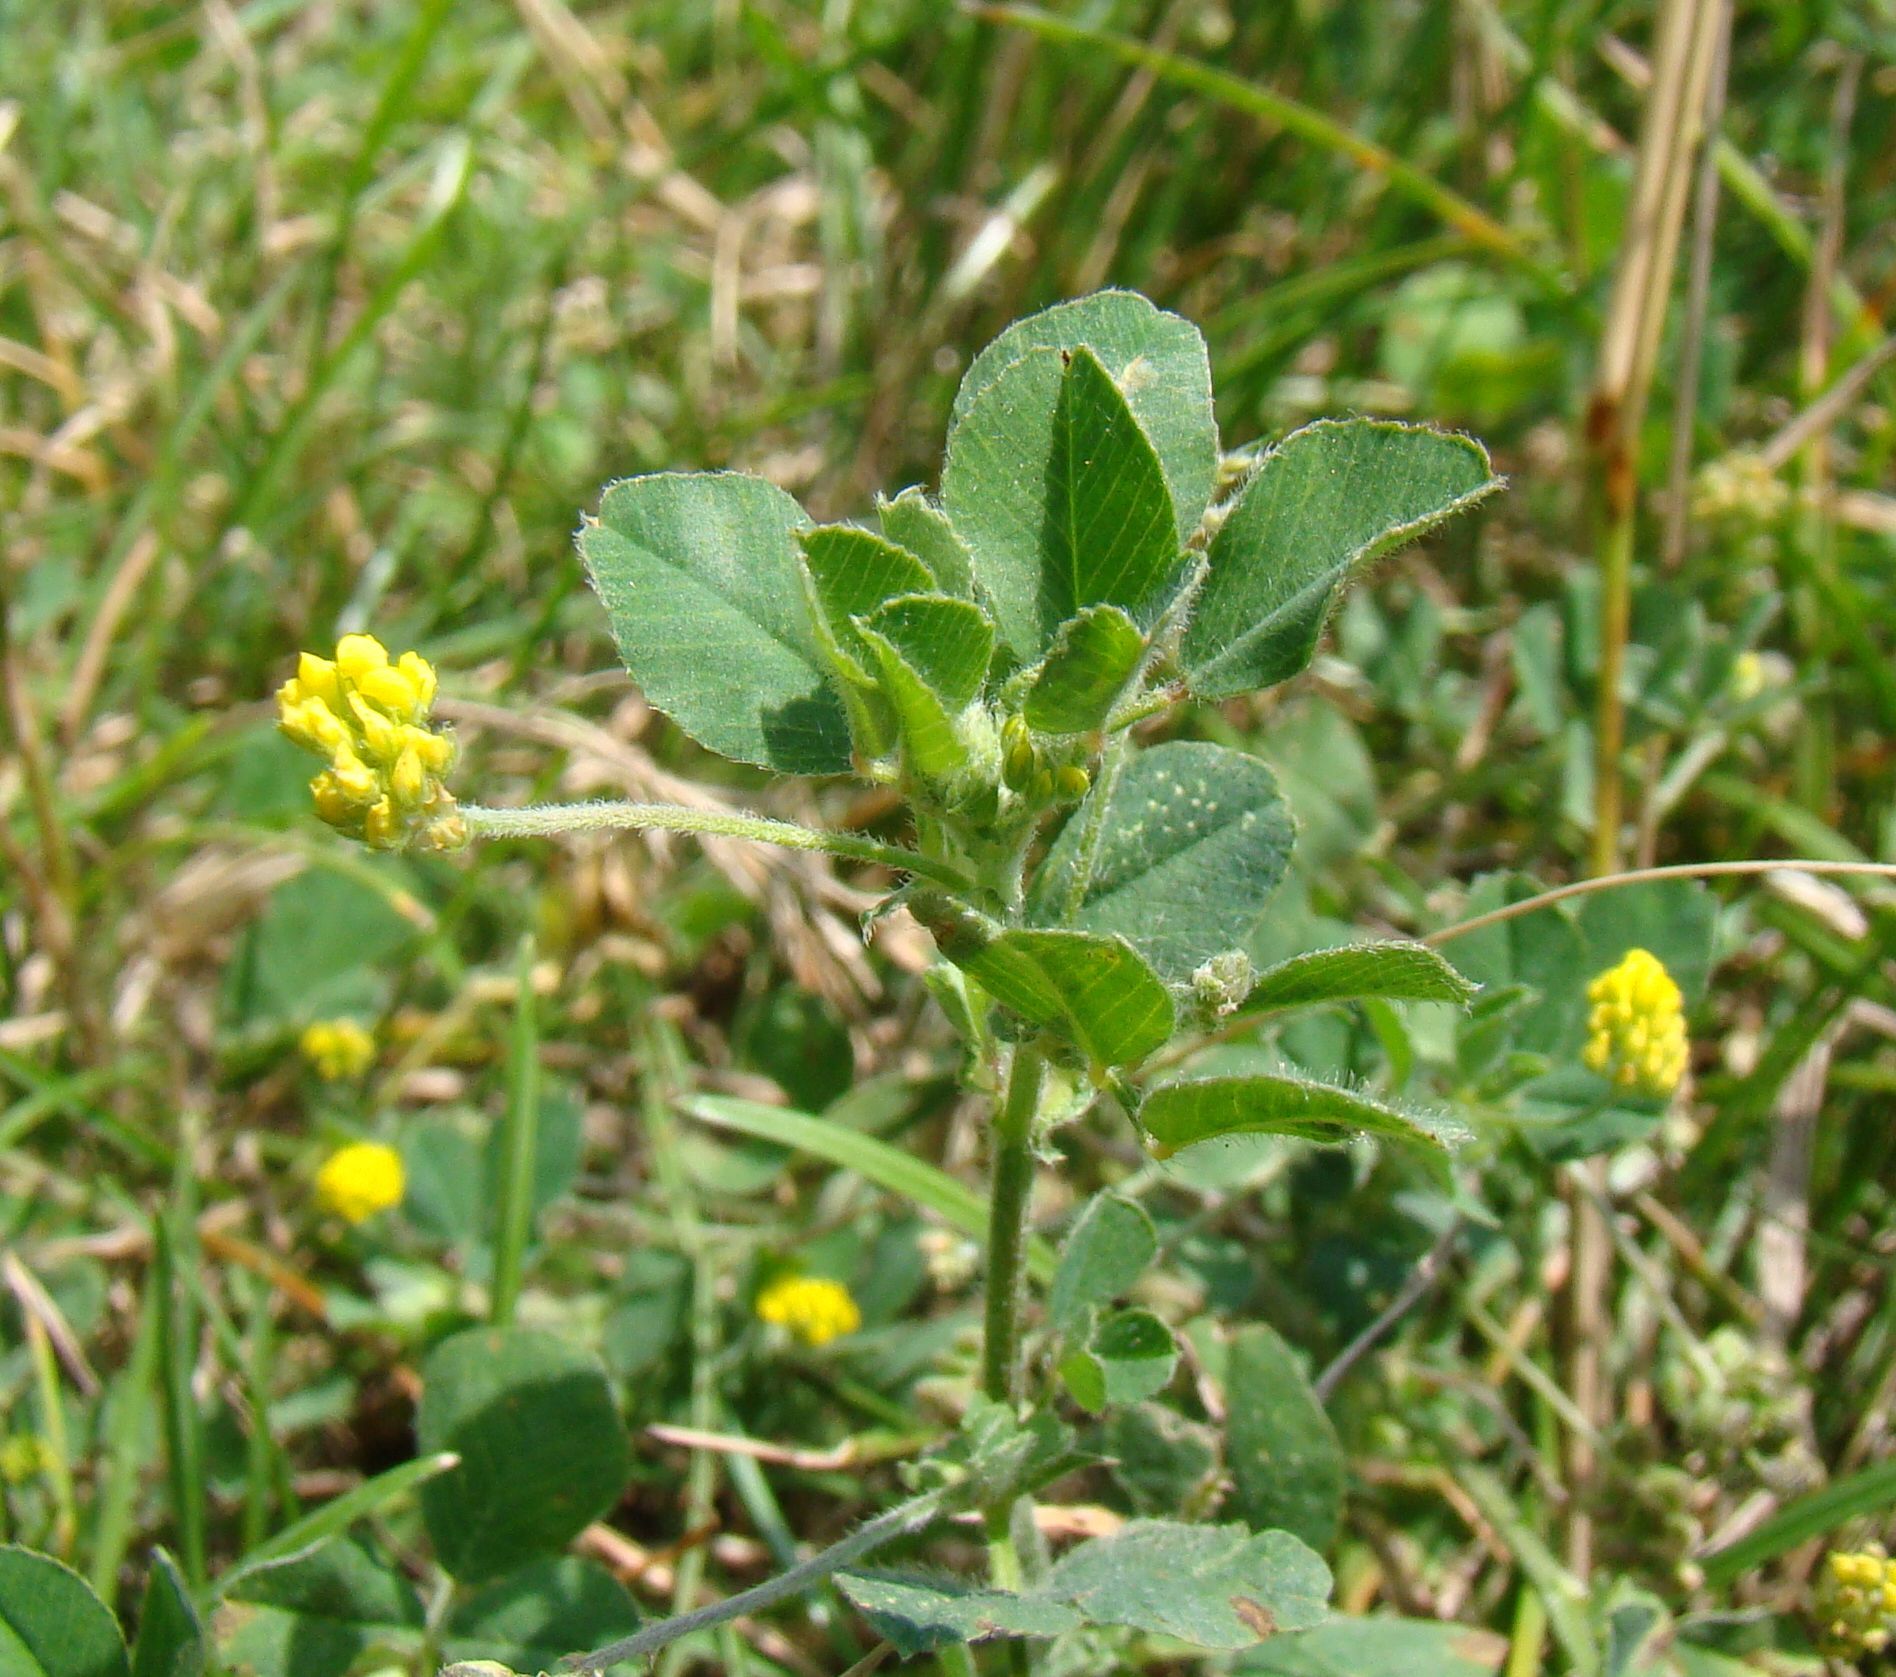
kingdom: Plantae
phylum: Tracheophyta
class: Magnoliopsida
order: Fabales
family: Fabaceae
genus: Medicago
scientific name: Medicago lupulina
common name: Black medick
